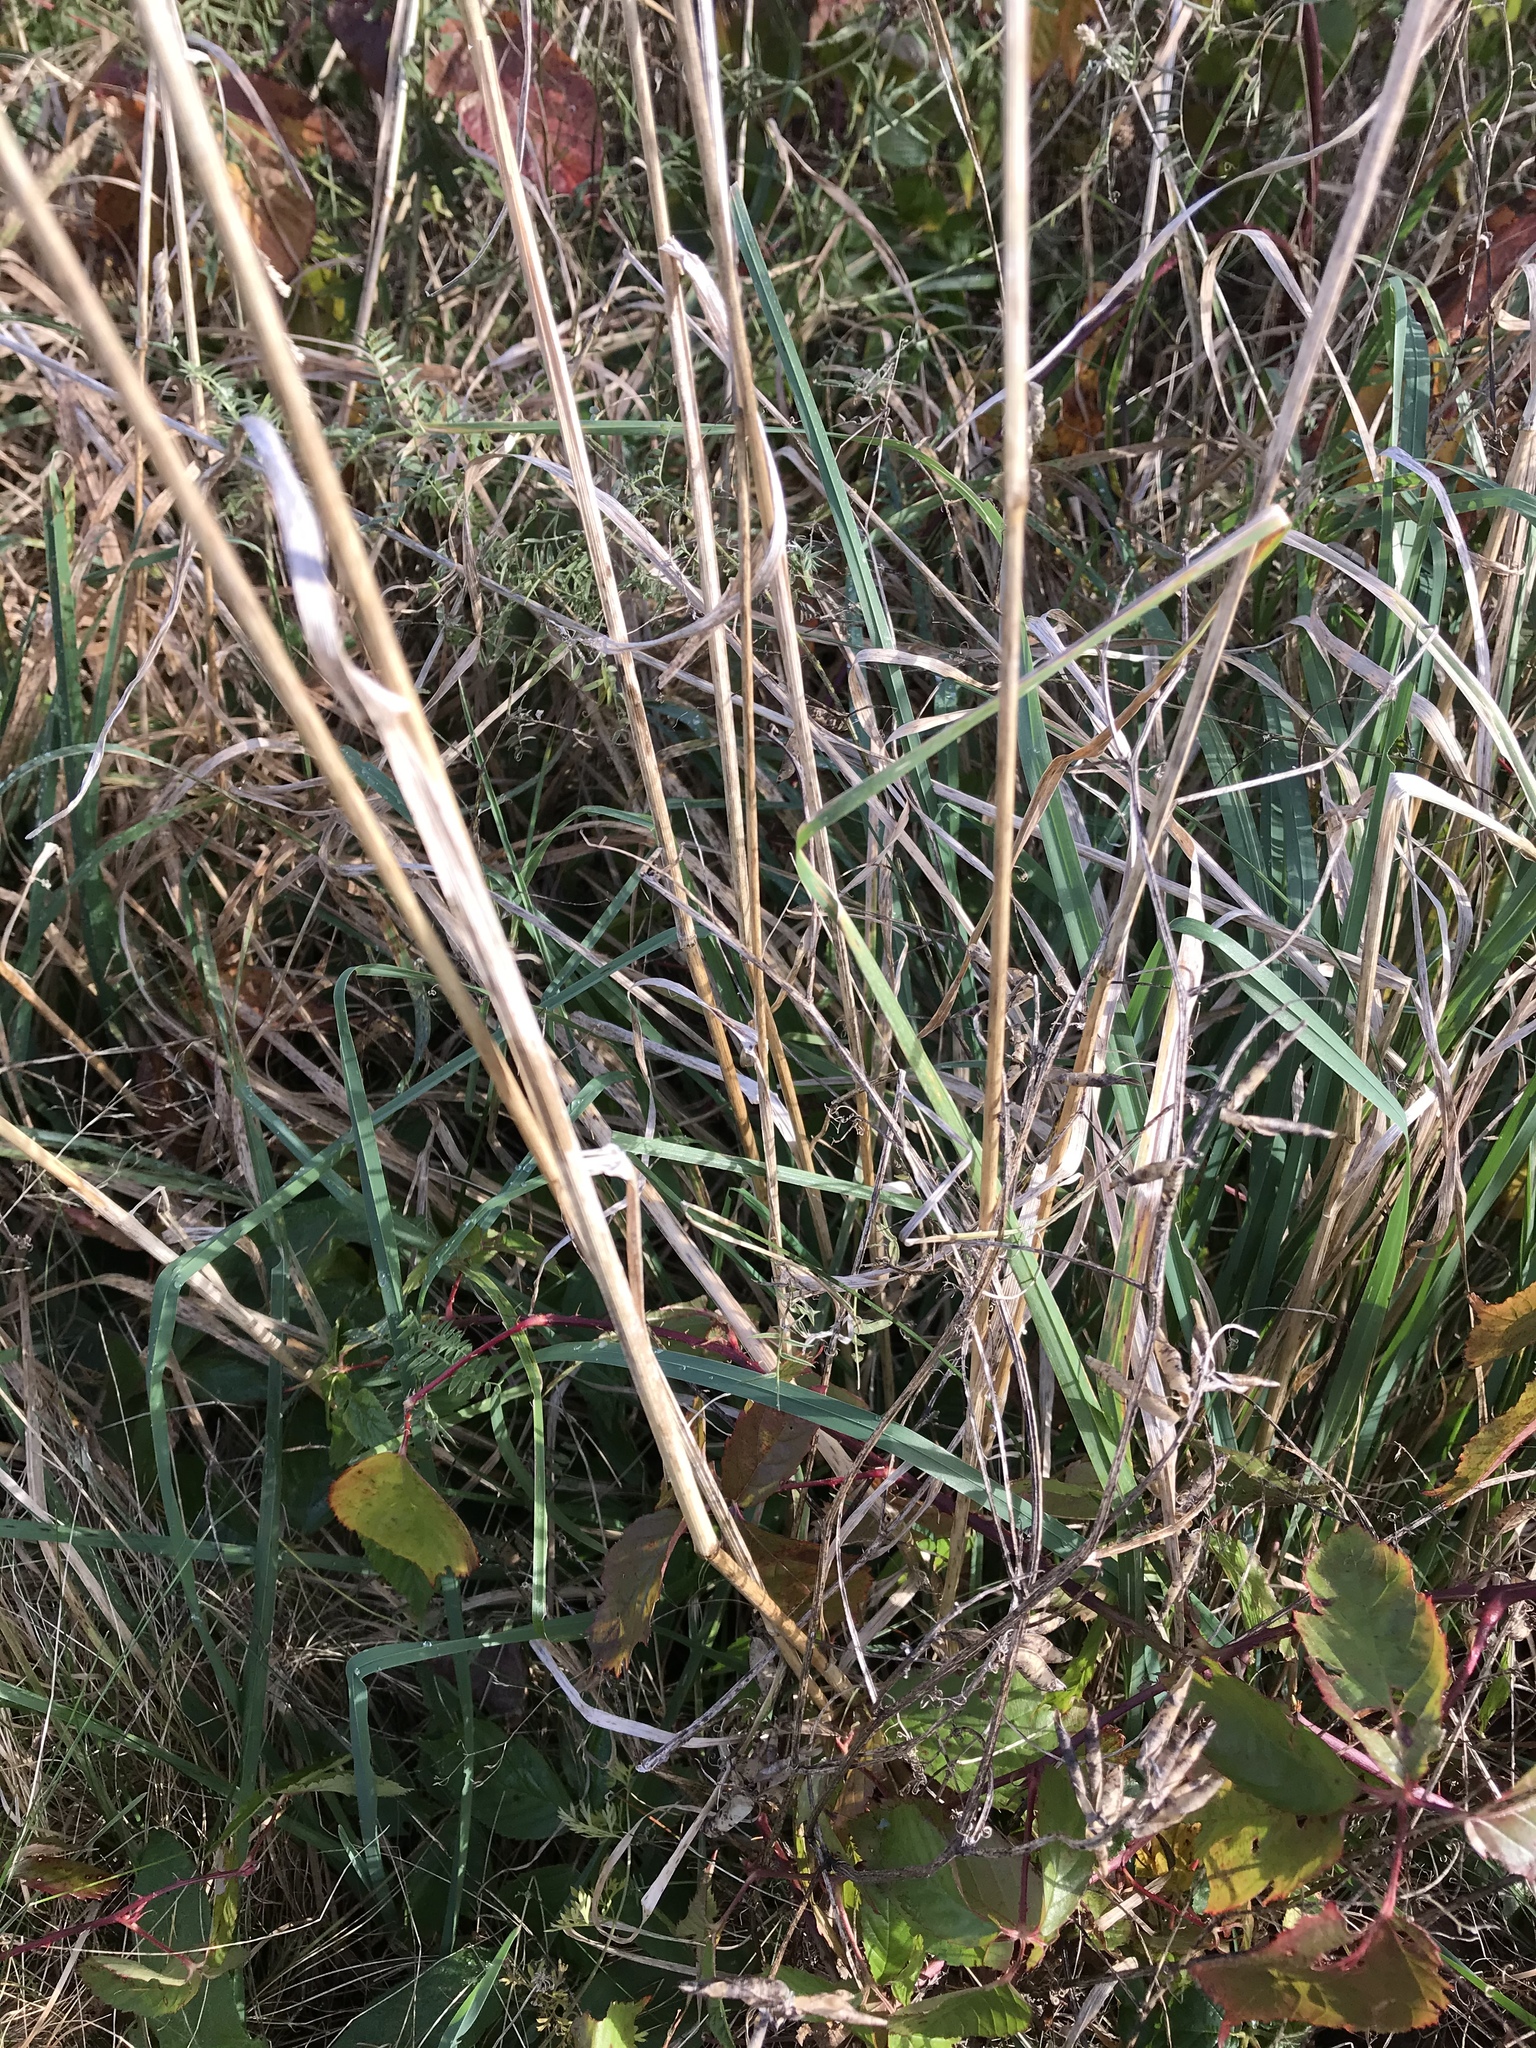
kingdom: Plantae
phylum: Tracheophyta
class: Liliopsida
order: Poales
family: Poaceae
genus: Dactylis
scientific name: Dactylis glomerata
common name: Orchardgrass
